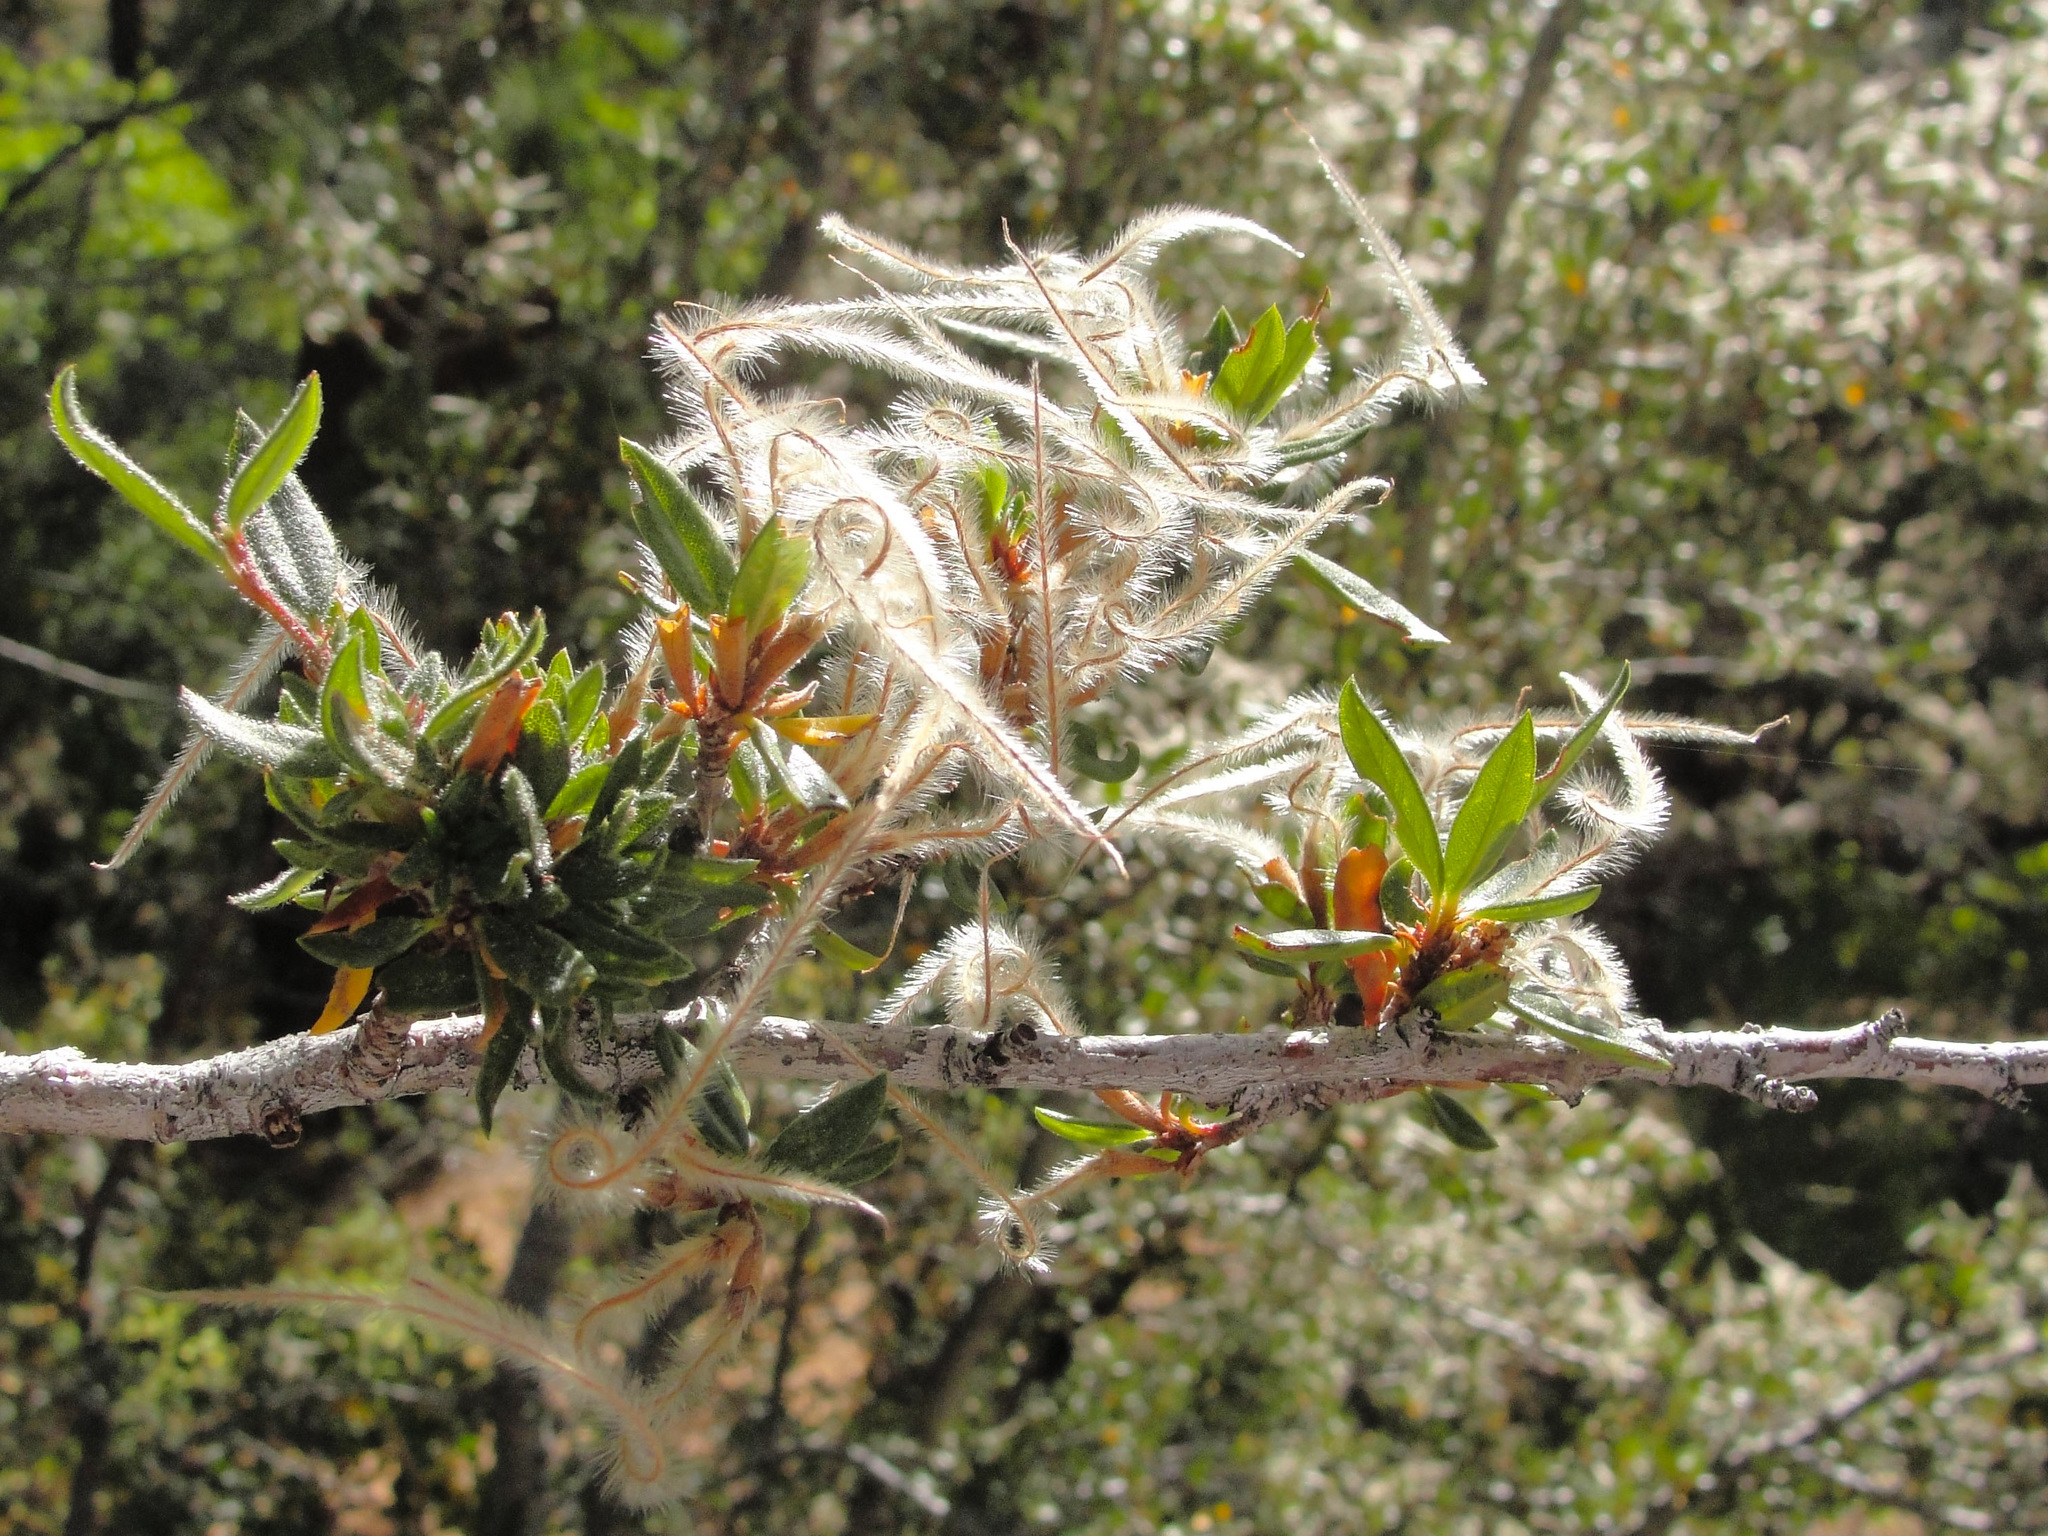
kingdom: Plantae
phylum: Tracheophyta
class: Magnoliopsida
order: Rosales
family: Rosaceae
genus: Cercocarpus
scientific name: Cercocarpus ledifolius
